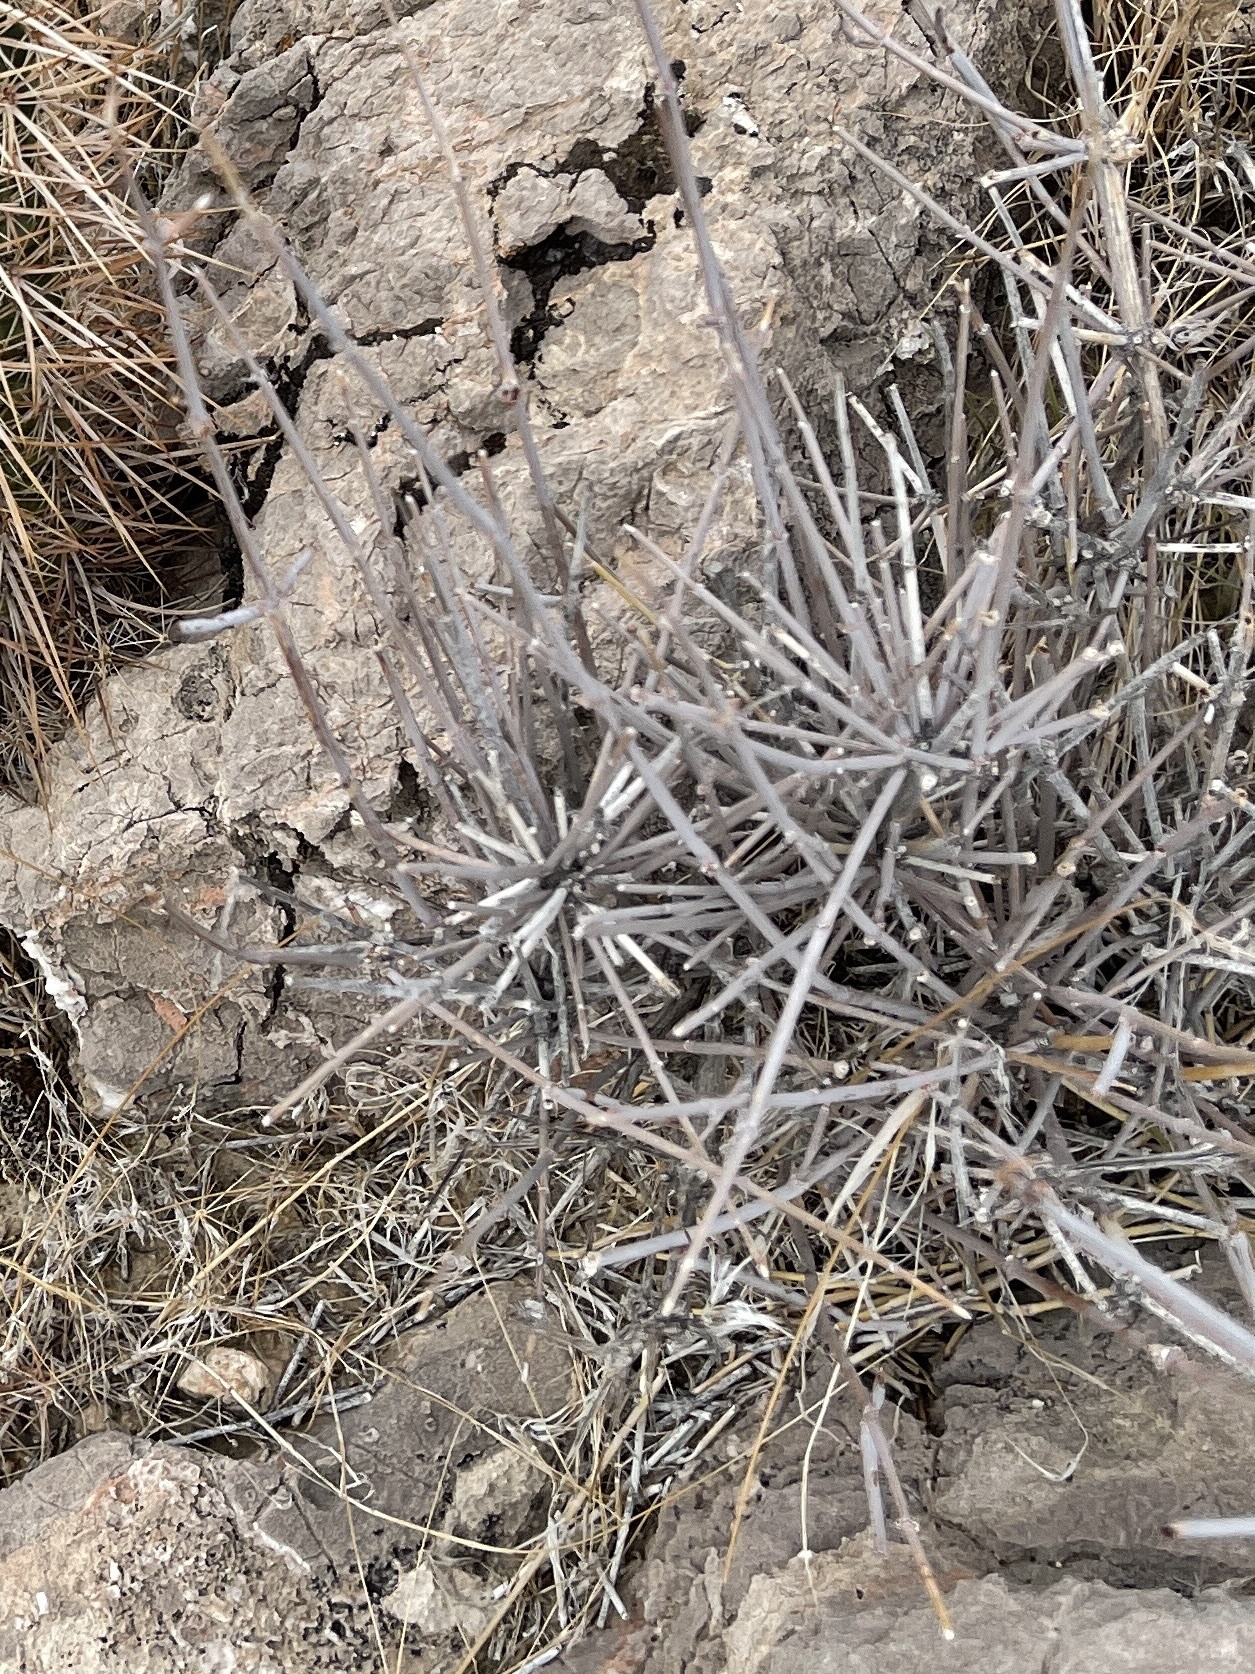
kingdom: Plantae
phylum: Tracheophyta
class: Gnetopsida
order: Ephedrales
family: Ephedraceae
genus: Ephedra
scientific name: Ephedra nevadensis
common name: Gray ephedra
